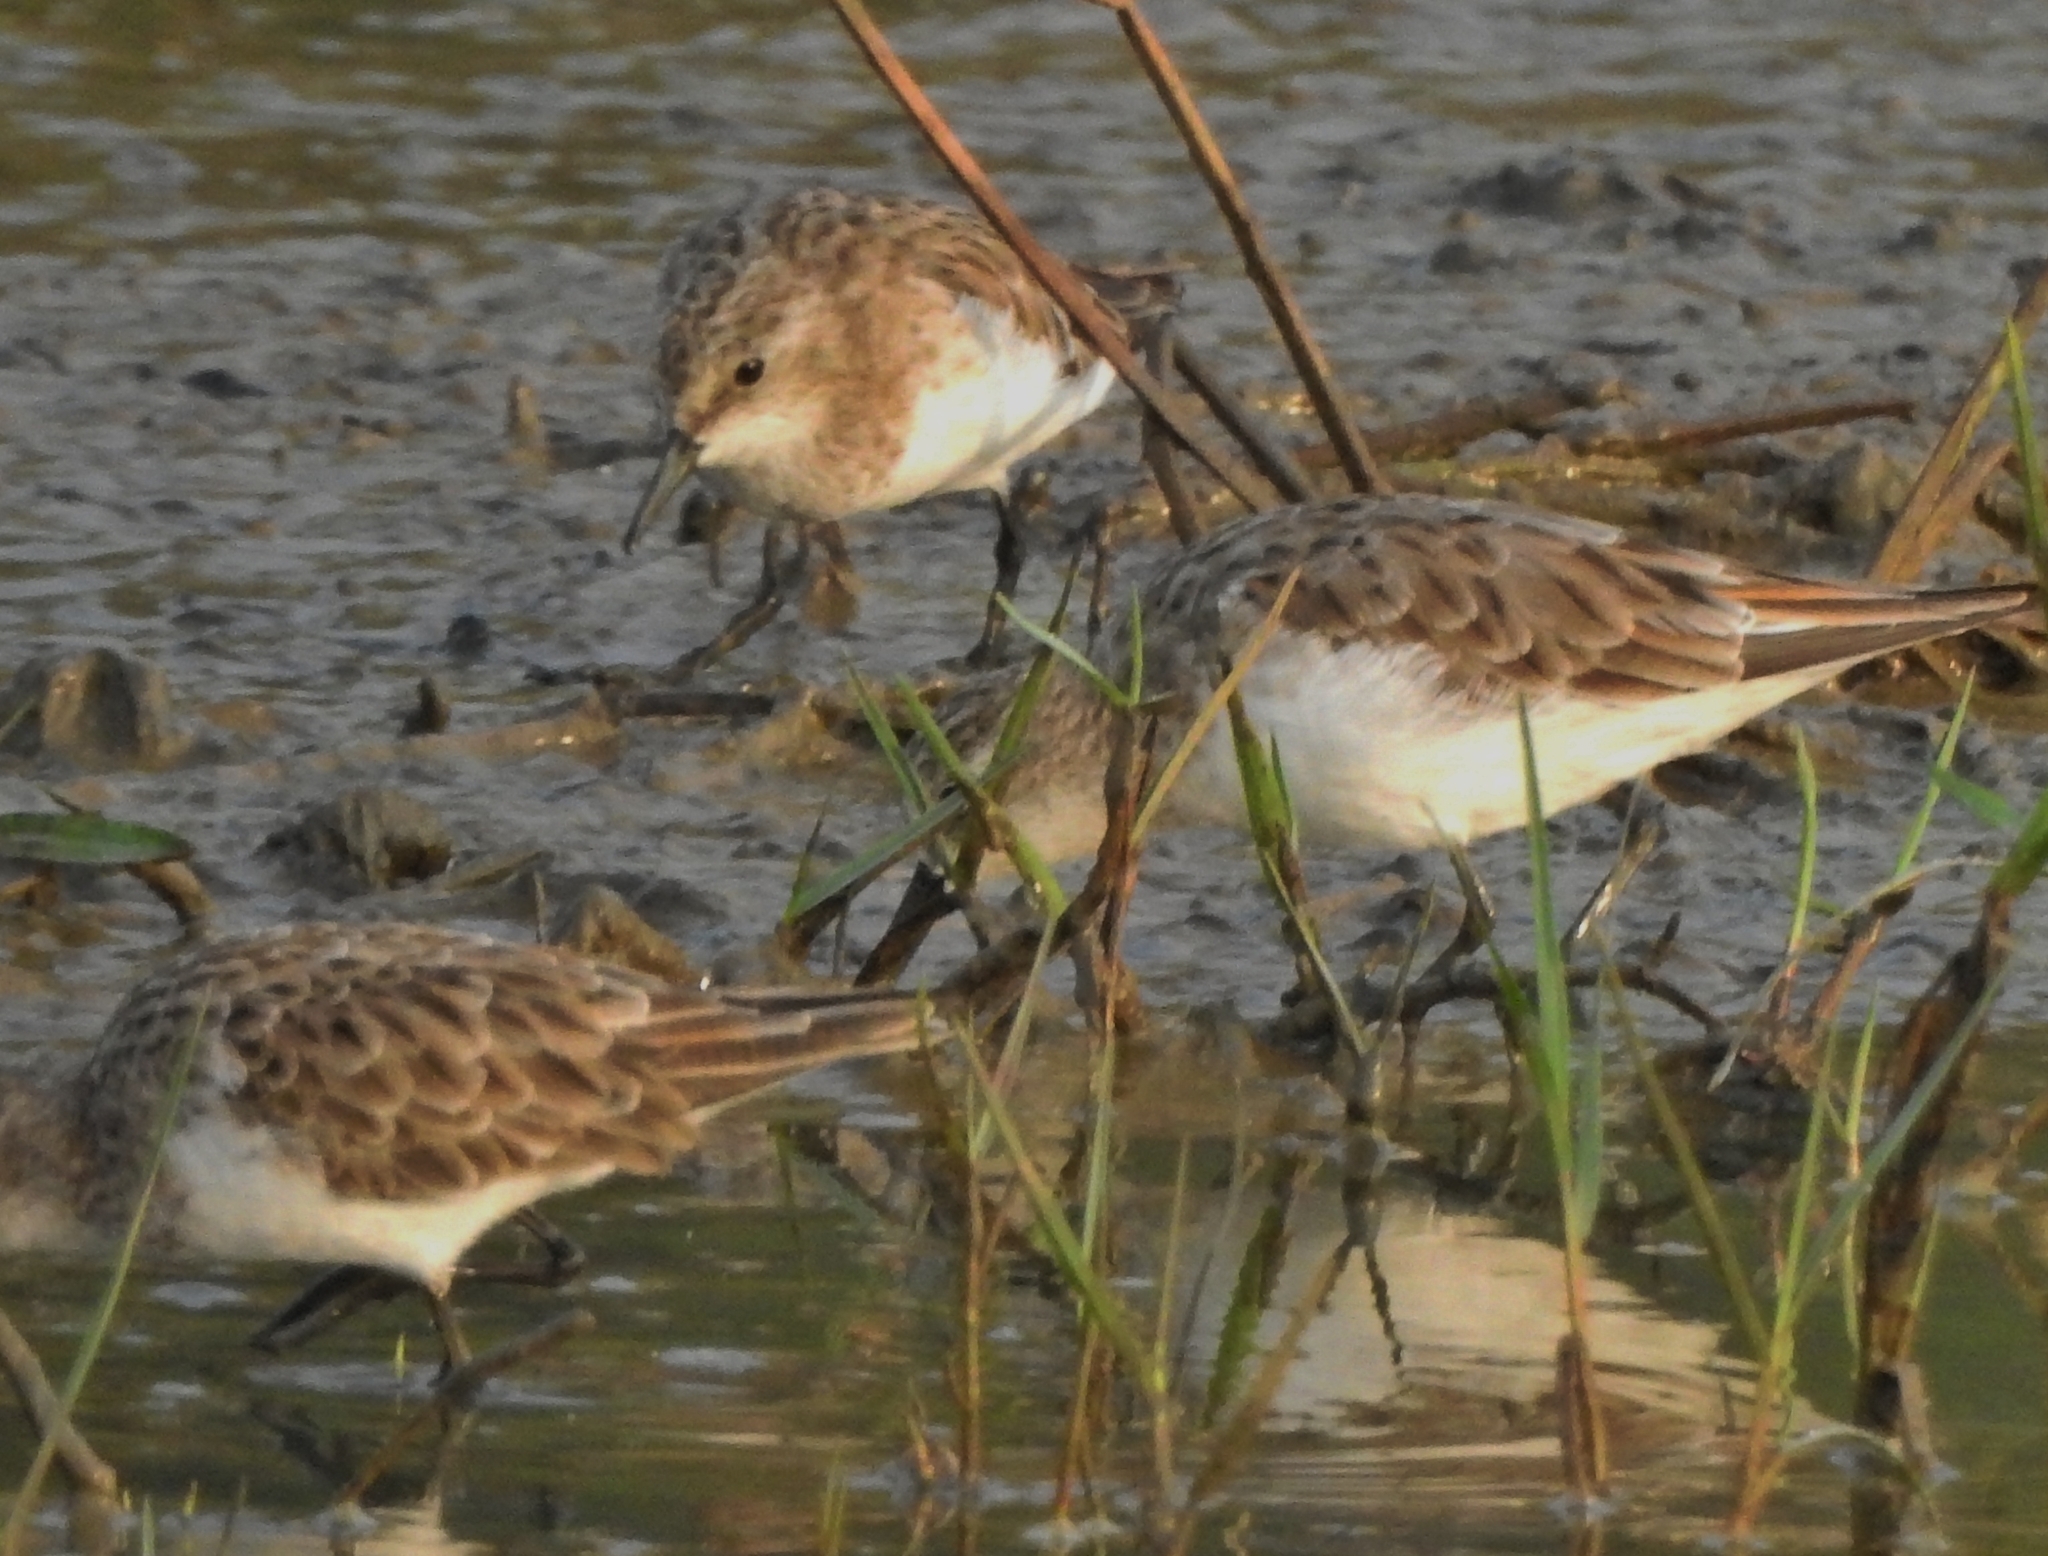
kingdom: Animalia
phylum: Chordata
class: Aves
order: Charadriiformes
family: Scolopacidae
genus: Calidris
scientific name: Calidris minuta
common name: Little stint
